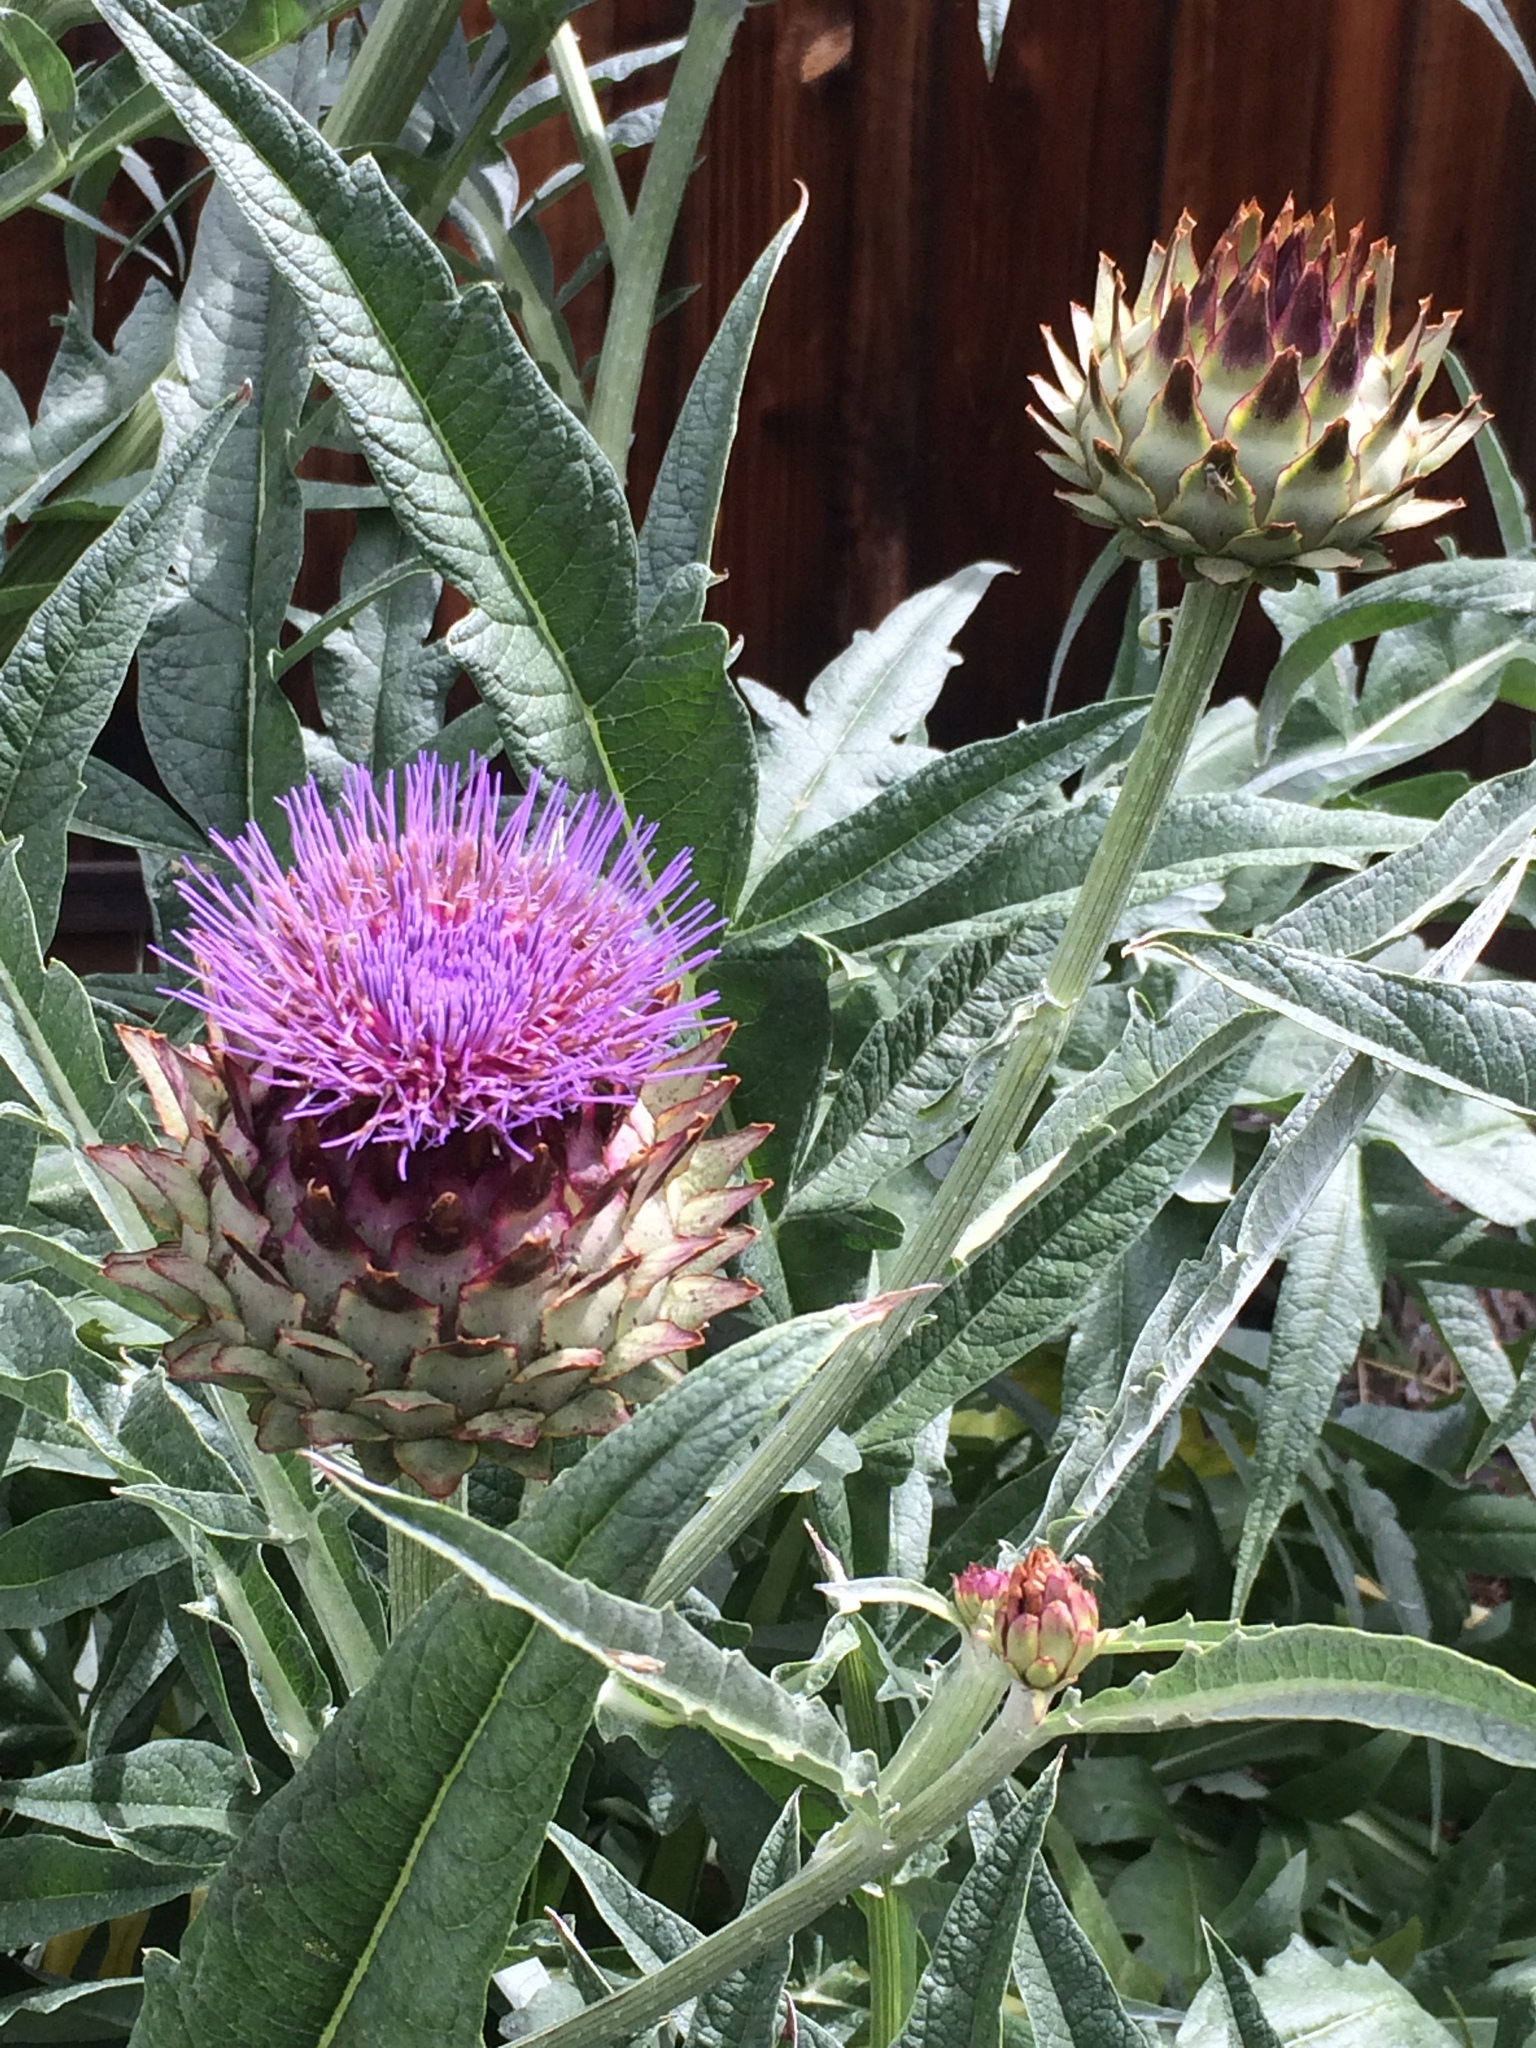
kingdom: Plantae
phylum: Tracheophyta
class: Magnoliopsida
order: Asterales
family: Asteraceae
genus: Cynara
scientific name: Cynara cardunculus
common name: Globe artichoke
